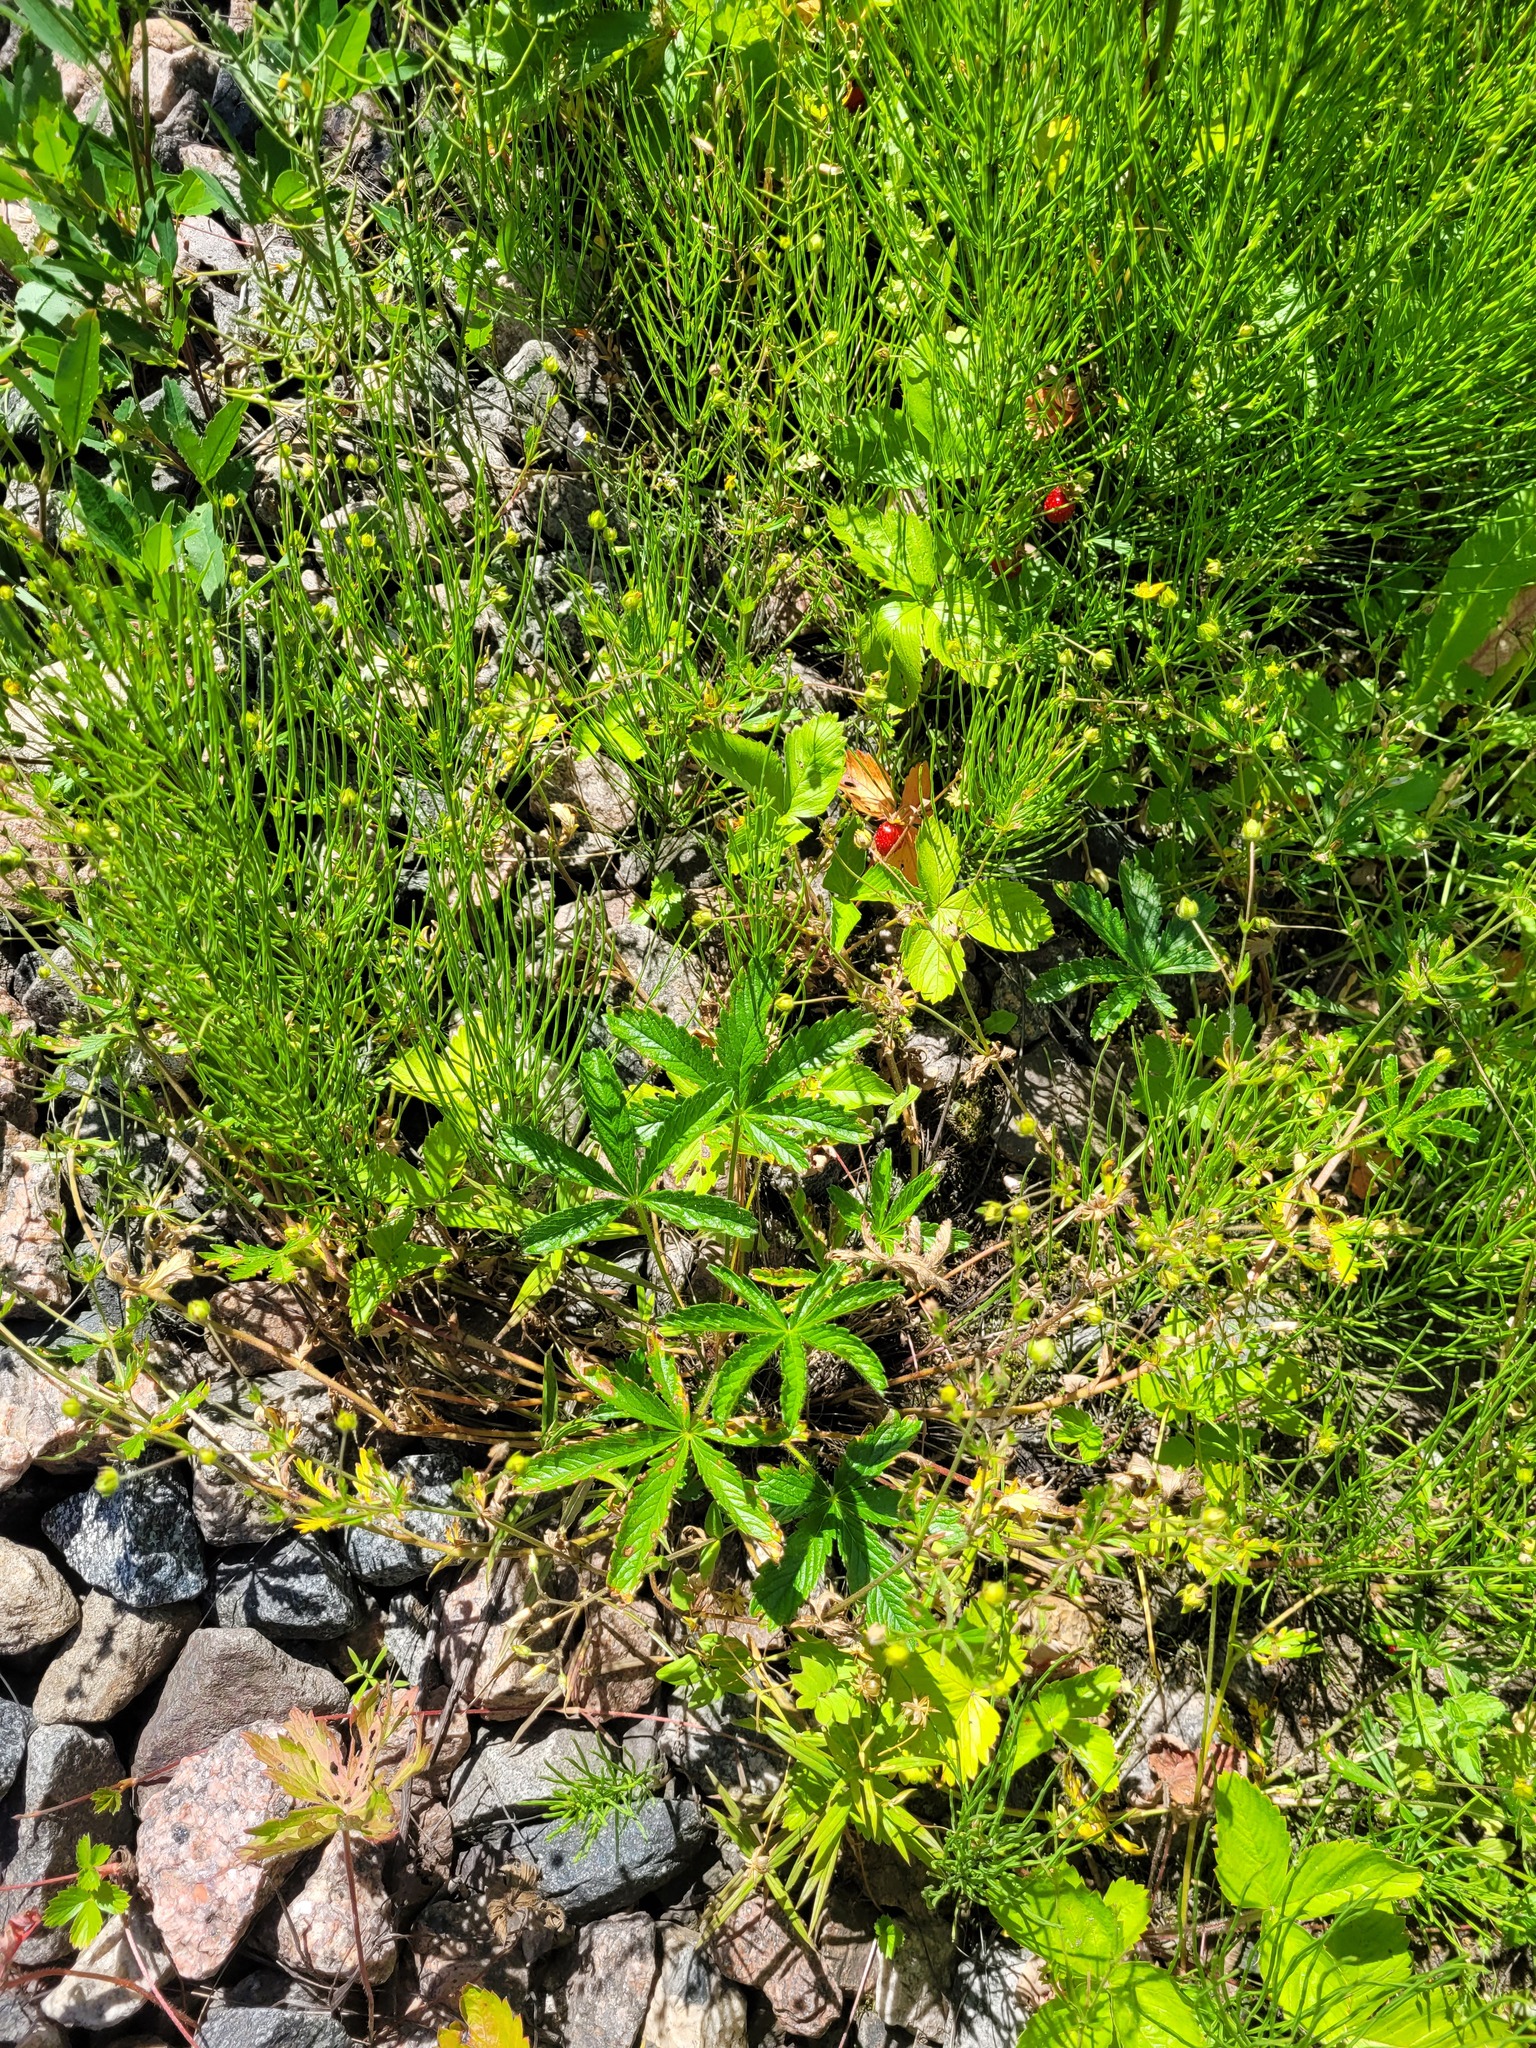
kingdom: Plantae
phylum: Tracheophyta
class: Magnoliopsida
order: Rosales
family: Rosaceae
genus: Potentilla
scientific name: Potentilla thuringiaca
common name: European cinquefoil
